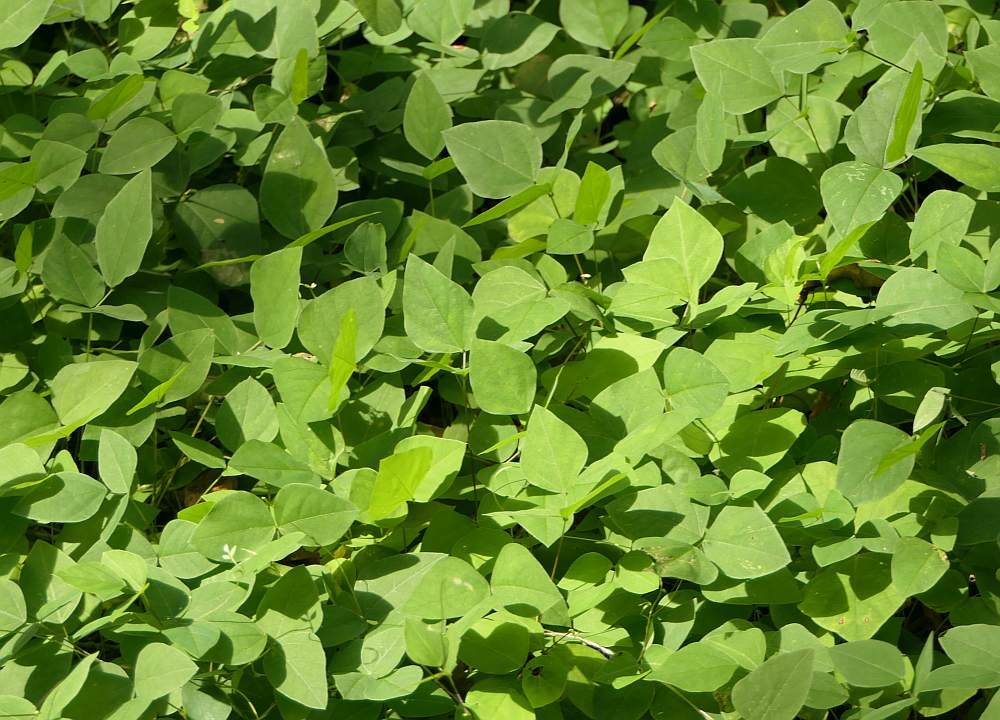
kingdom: Plantae
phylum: Tracheophyta
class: Magnoliopsida
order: Fabales
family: Fabaceae
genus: Amphicarpaea
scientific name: Amphicarpaea bracteata
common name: American hog peanut
